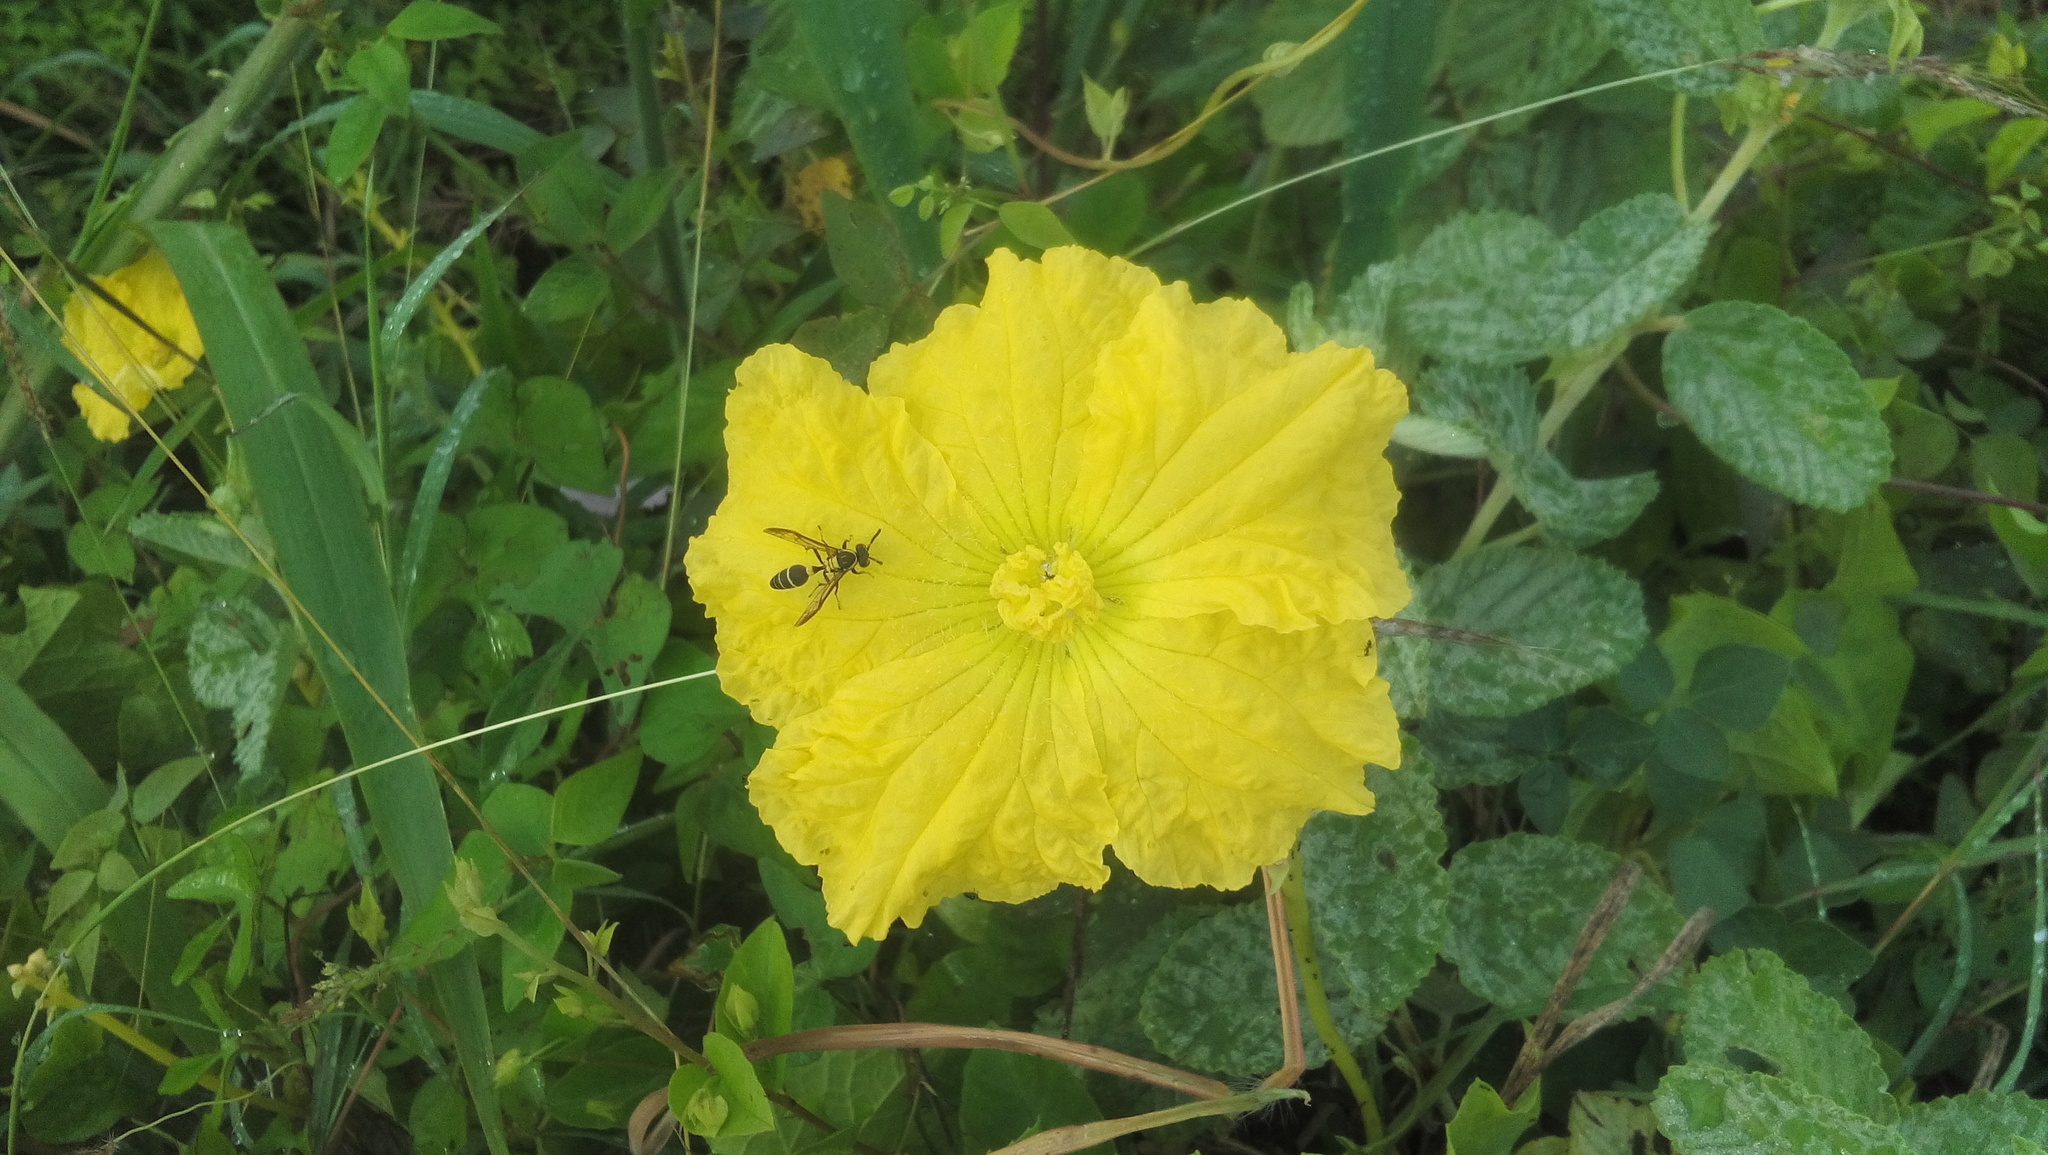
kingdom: Plantae
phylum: Tracheophyta
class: Magnoliopsida
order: Cucurbitales
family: Cucurbitaceae
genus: Luffa
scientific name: Luffa aegyptiaca
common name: Sponge gourd
